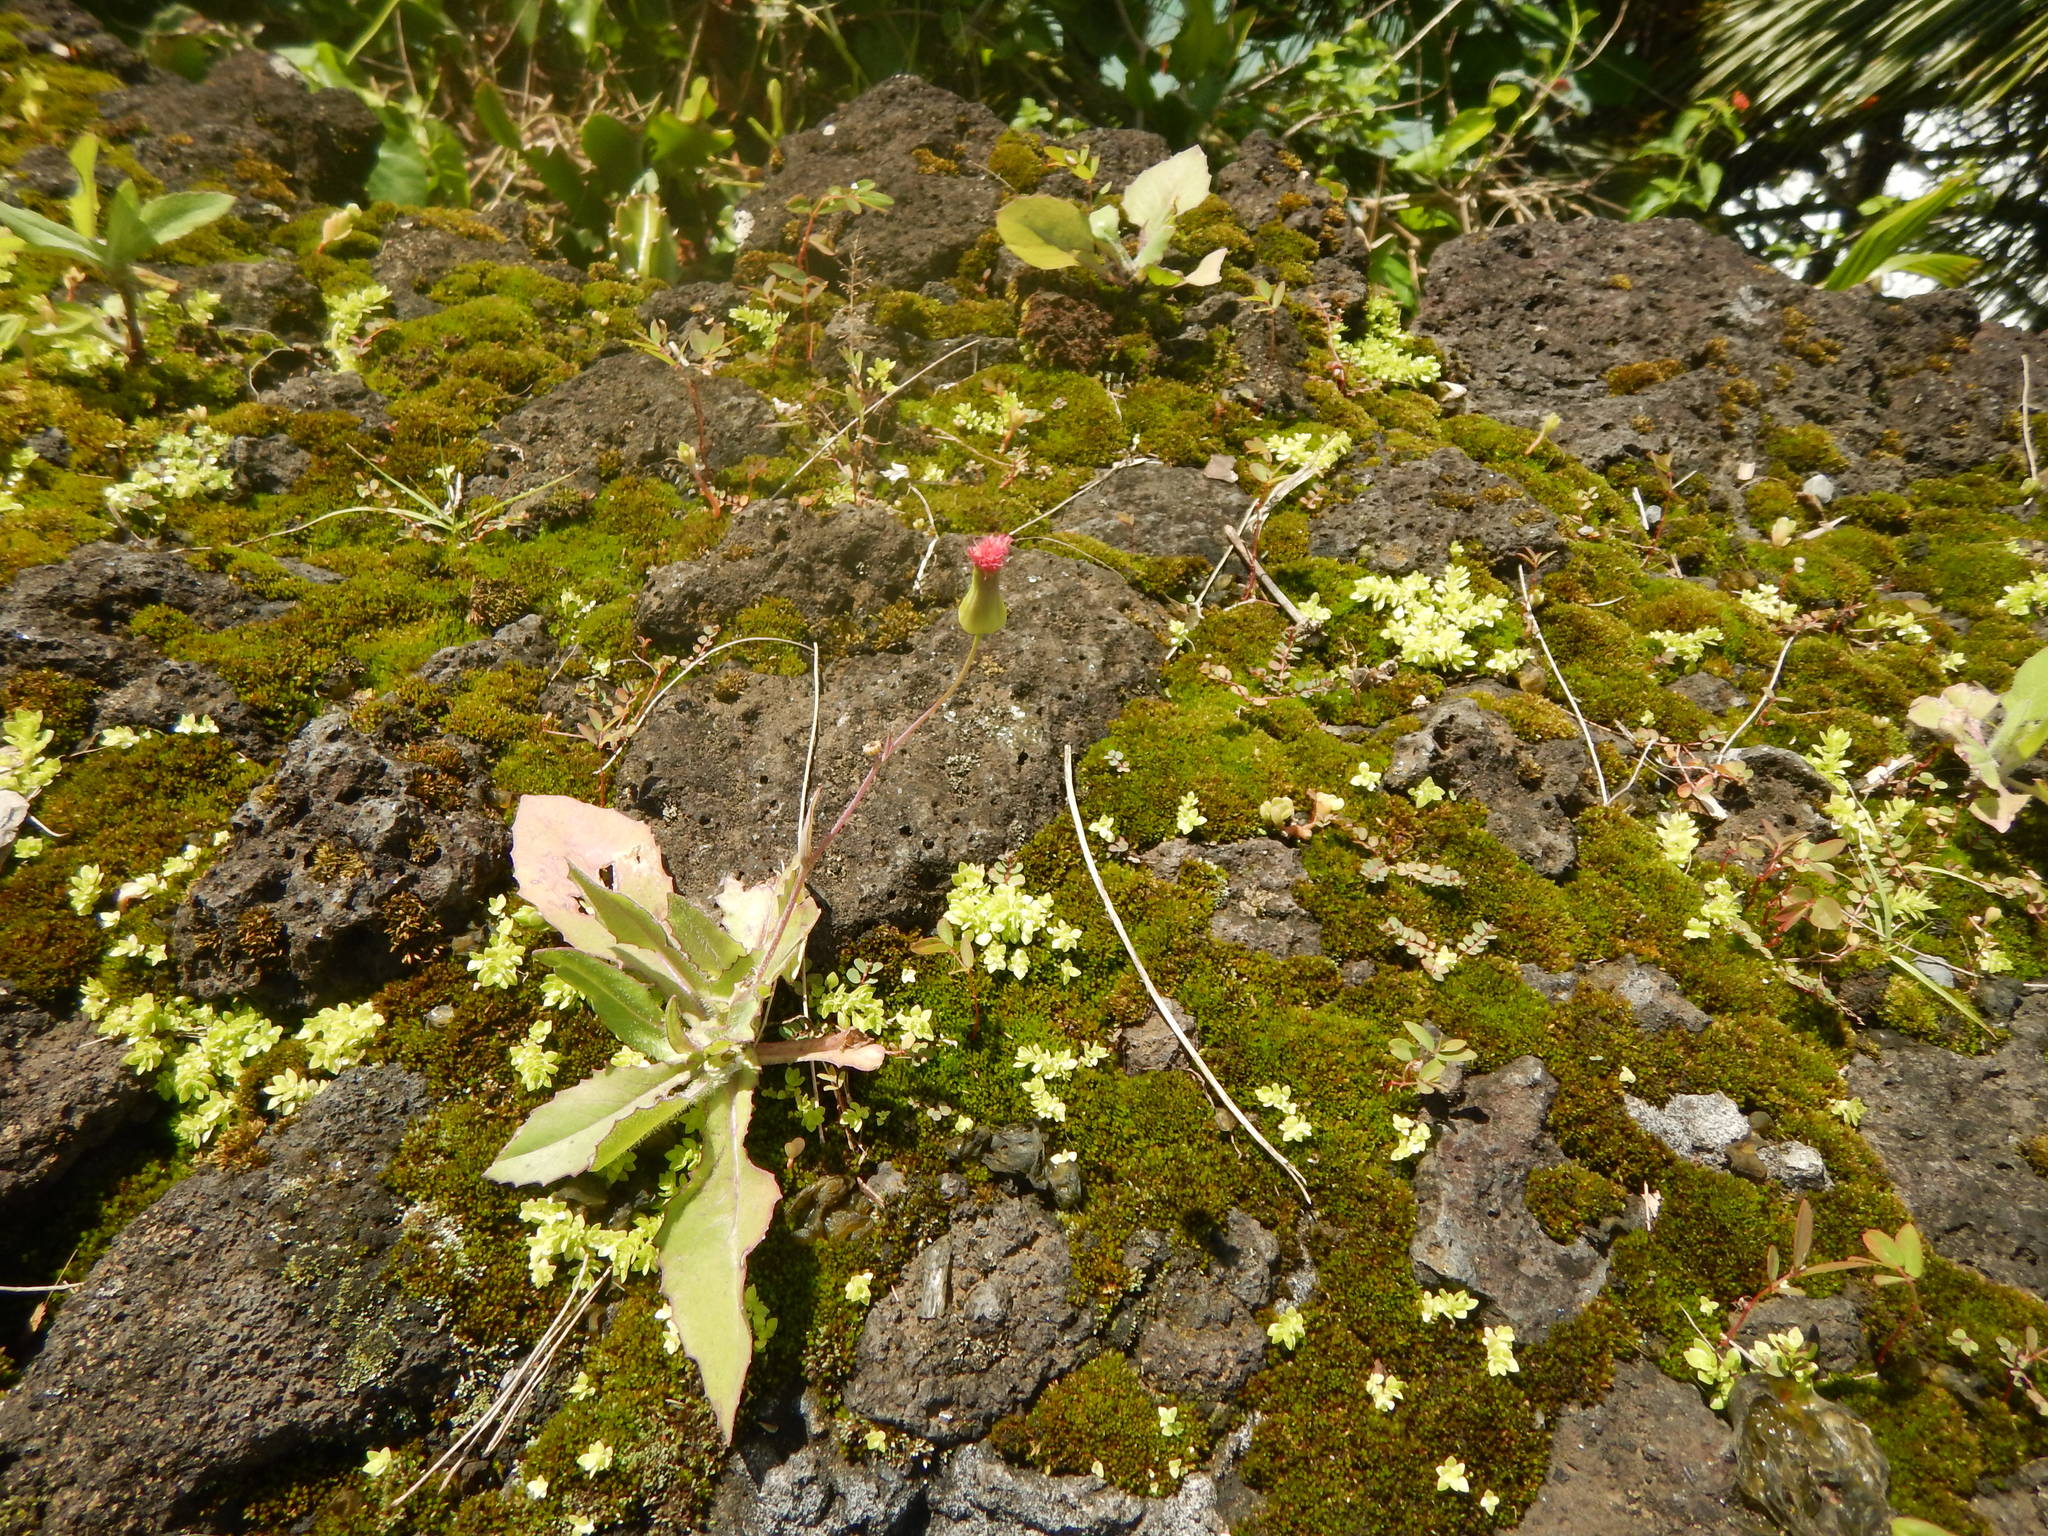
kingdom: Plantae
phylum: Tracheophyta
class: Magnoliopsida
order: Asterales
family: Asteraceae
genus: Emilia
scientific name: Emilia fosbergii
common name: Florida tasselflower
